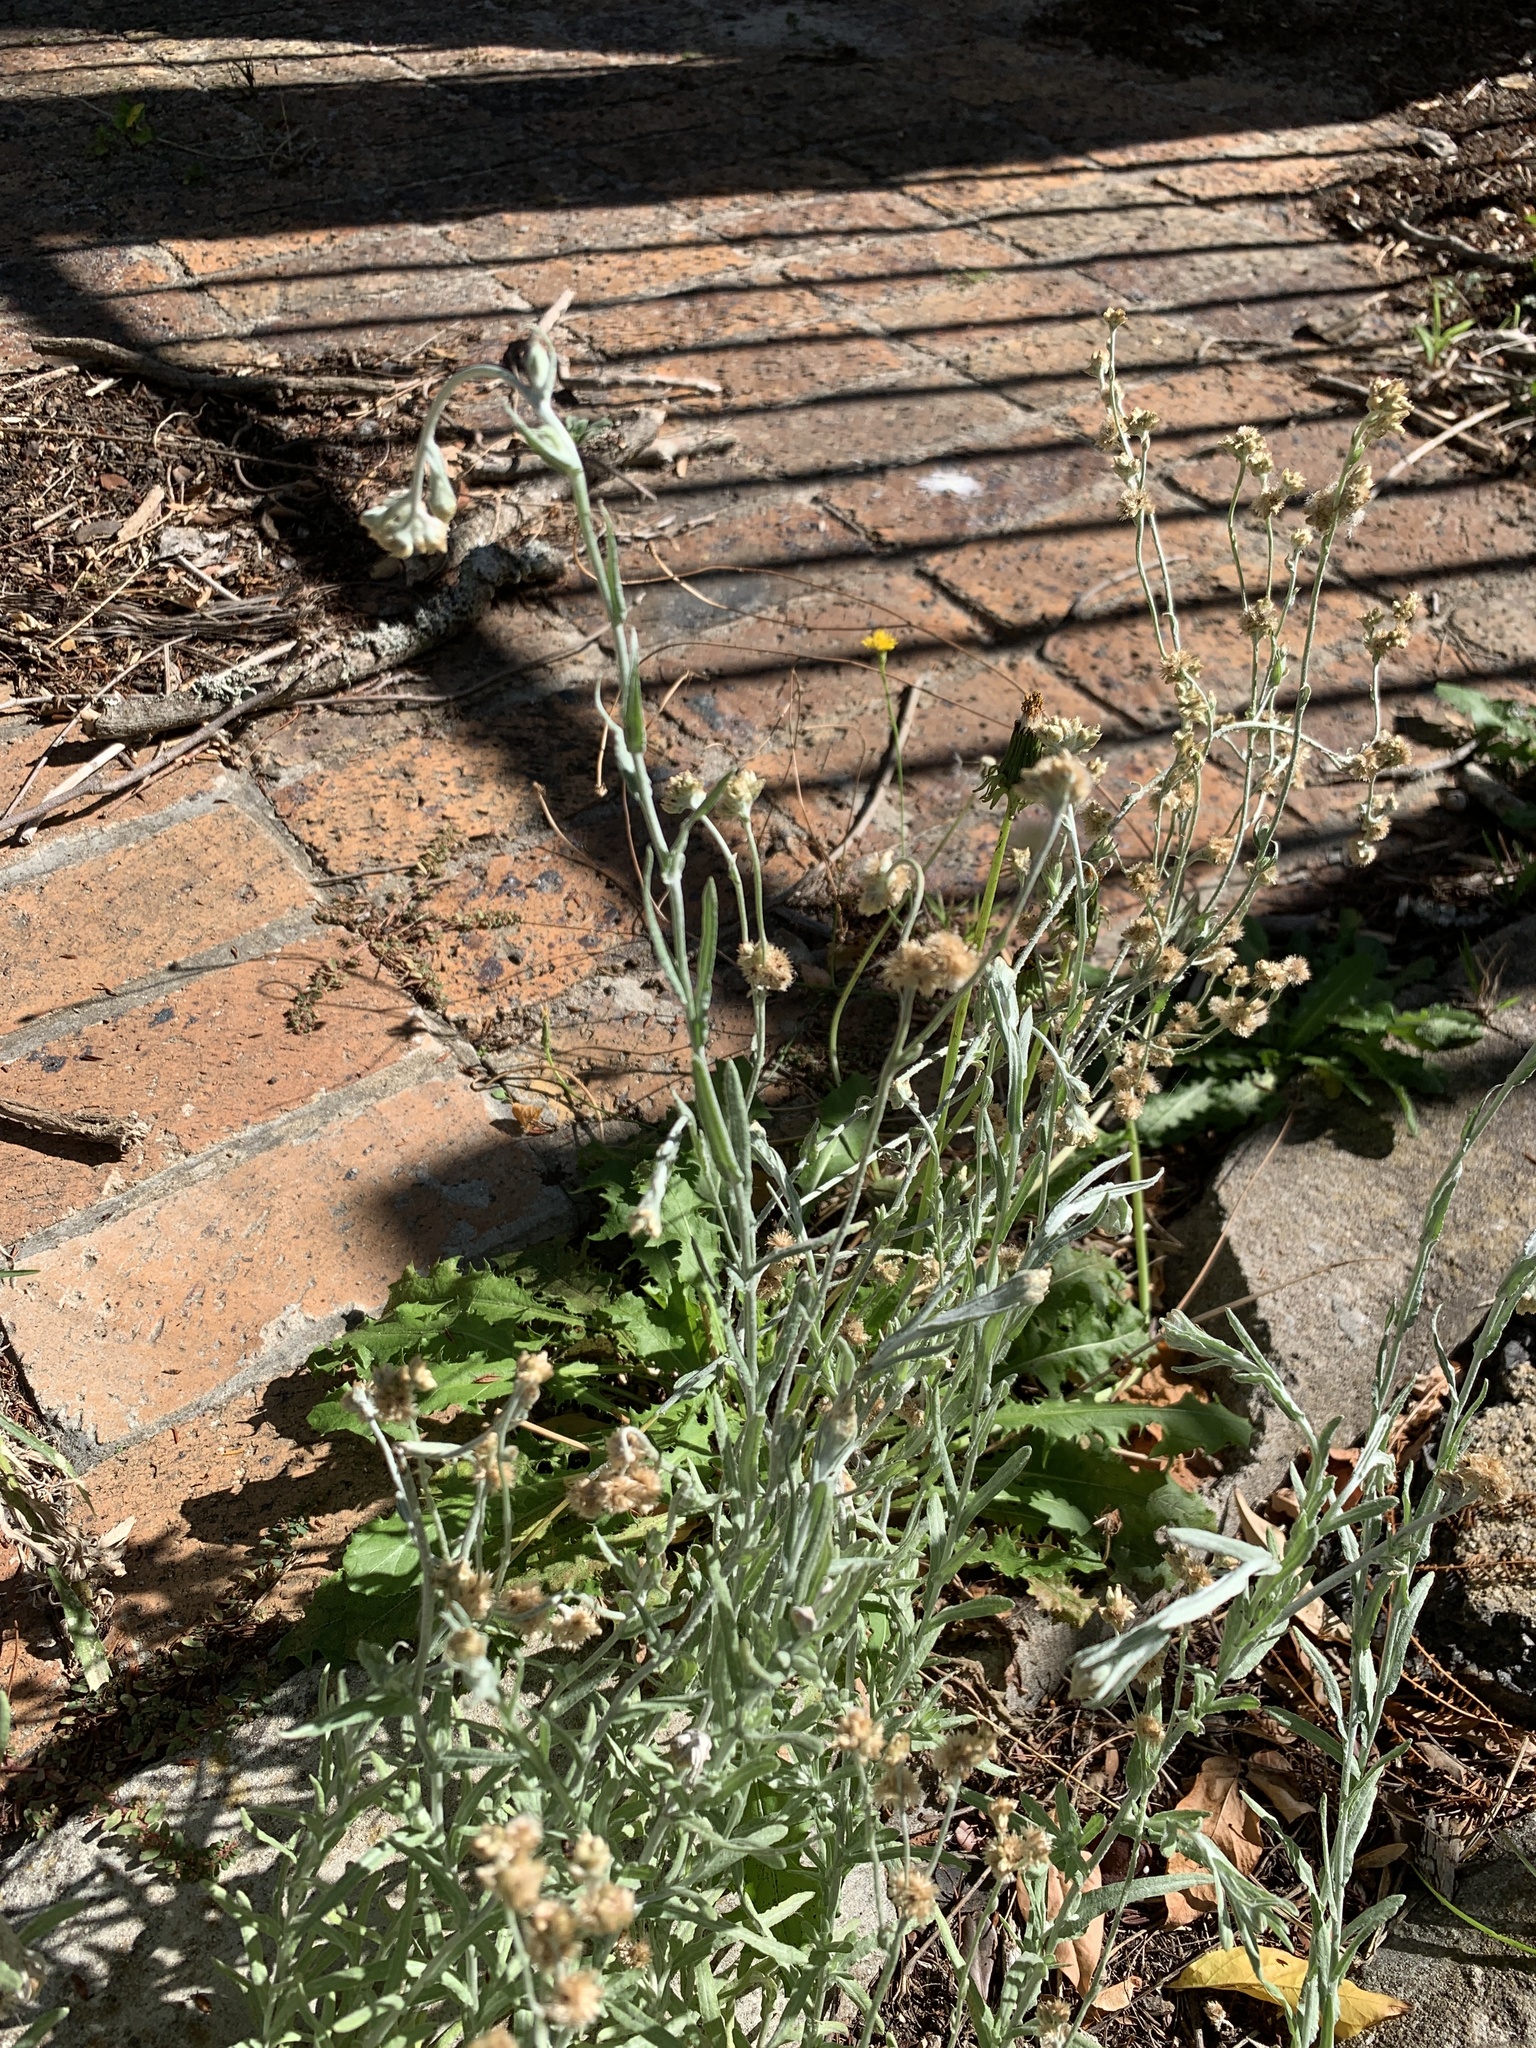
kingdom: Plantae
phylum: Tracheophyta
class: Magnoliopsida
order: Asterales
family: Asteraceae
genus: Helichrysum
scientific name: Helichrysum luteoalbum
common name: Daisy
